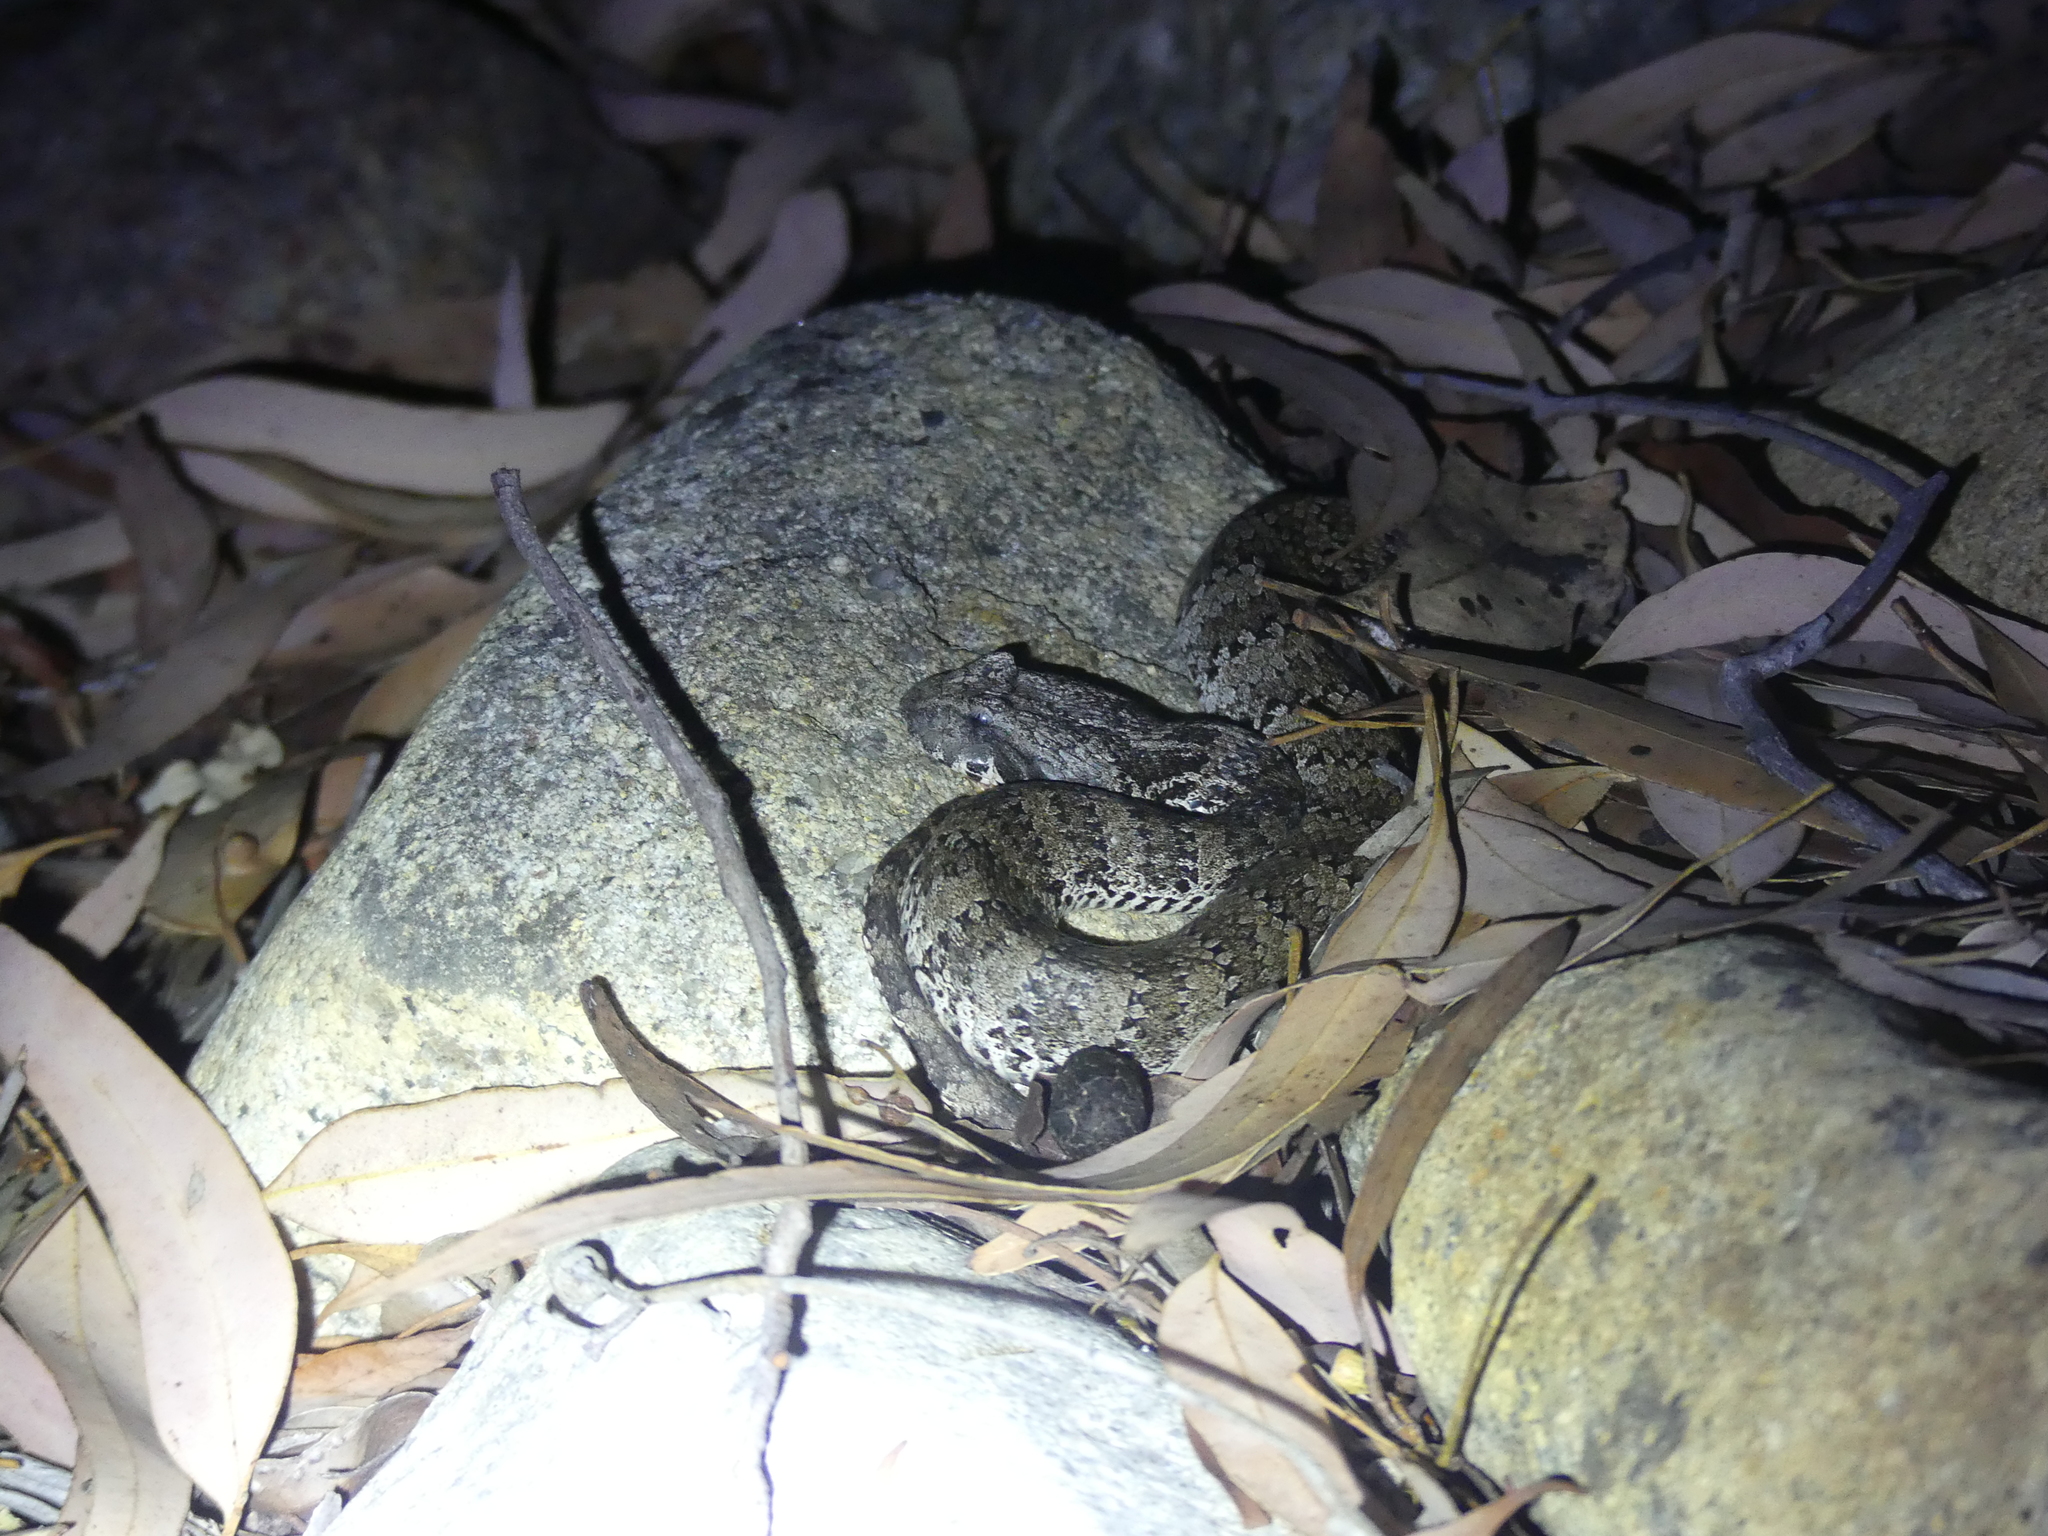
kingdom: Animalia
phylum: Chordata
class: Squamata
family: Elapidae
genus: Acanthophis
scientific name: Acanthophis praelongus
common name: Northern death adder
